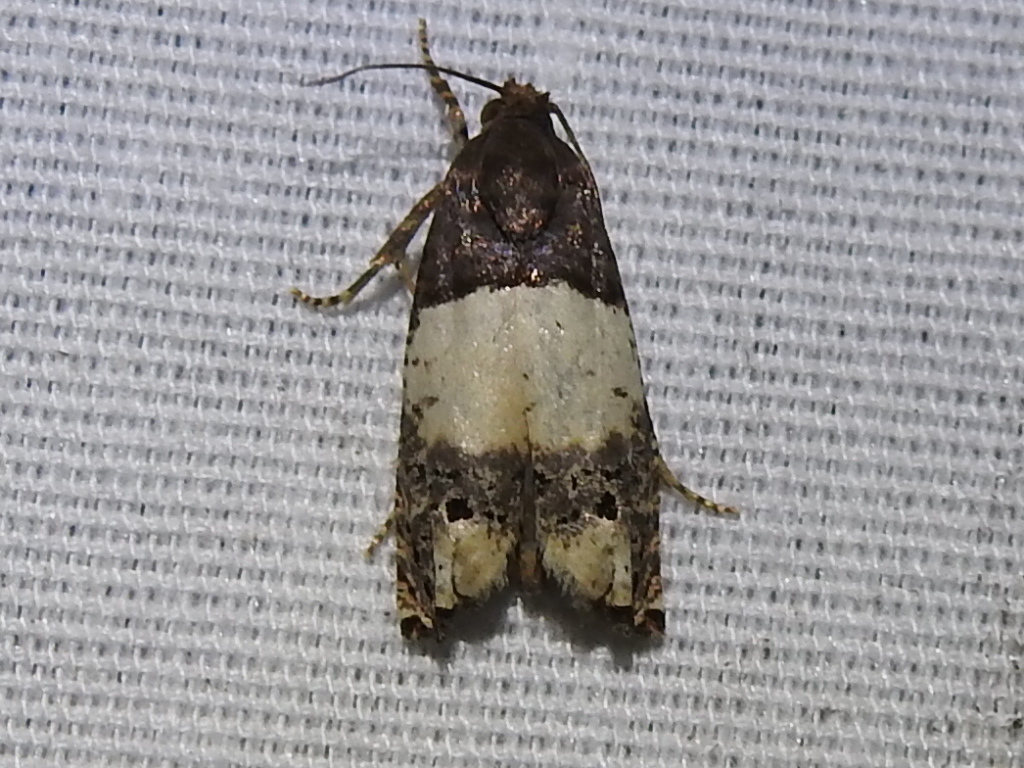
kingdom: Animalia
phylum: Arthropoda
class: Insecta
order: Lepidoptera
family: Tortricidae
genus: Epiblema
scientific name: Epiblema scudderiana
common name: Goldenrod gall moth
